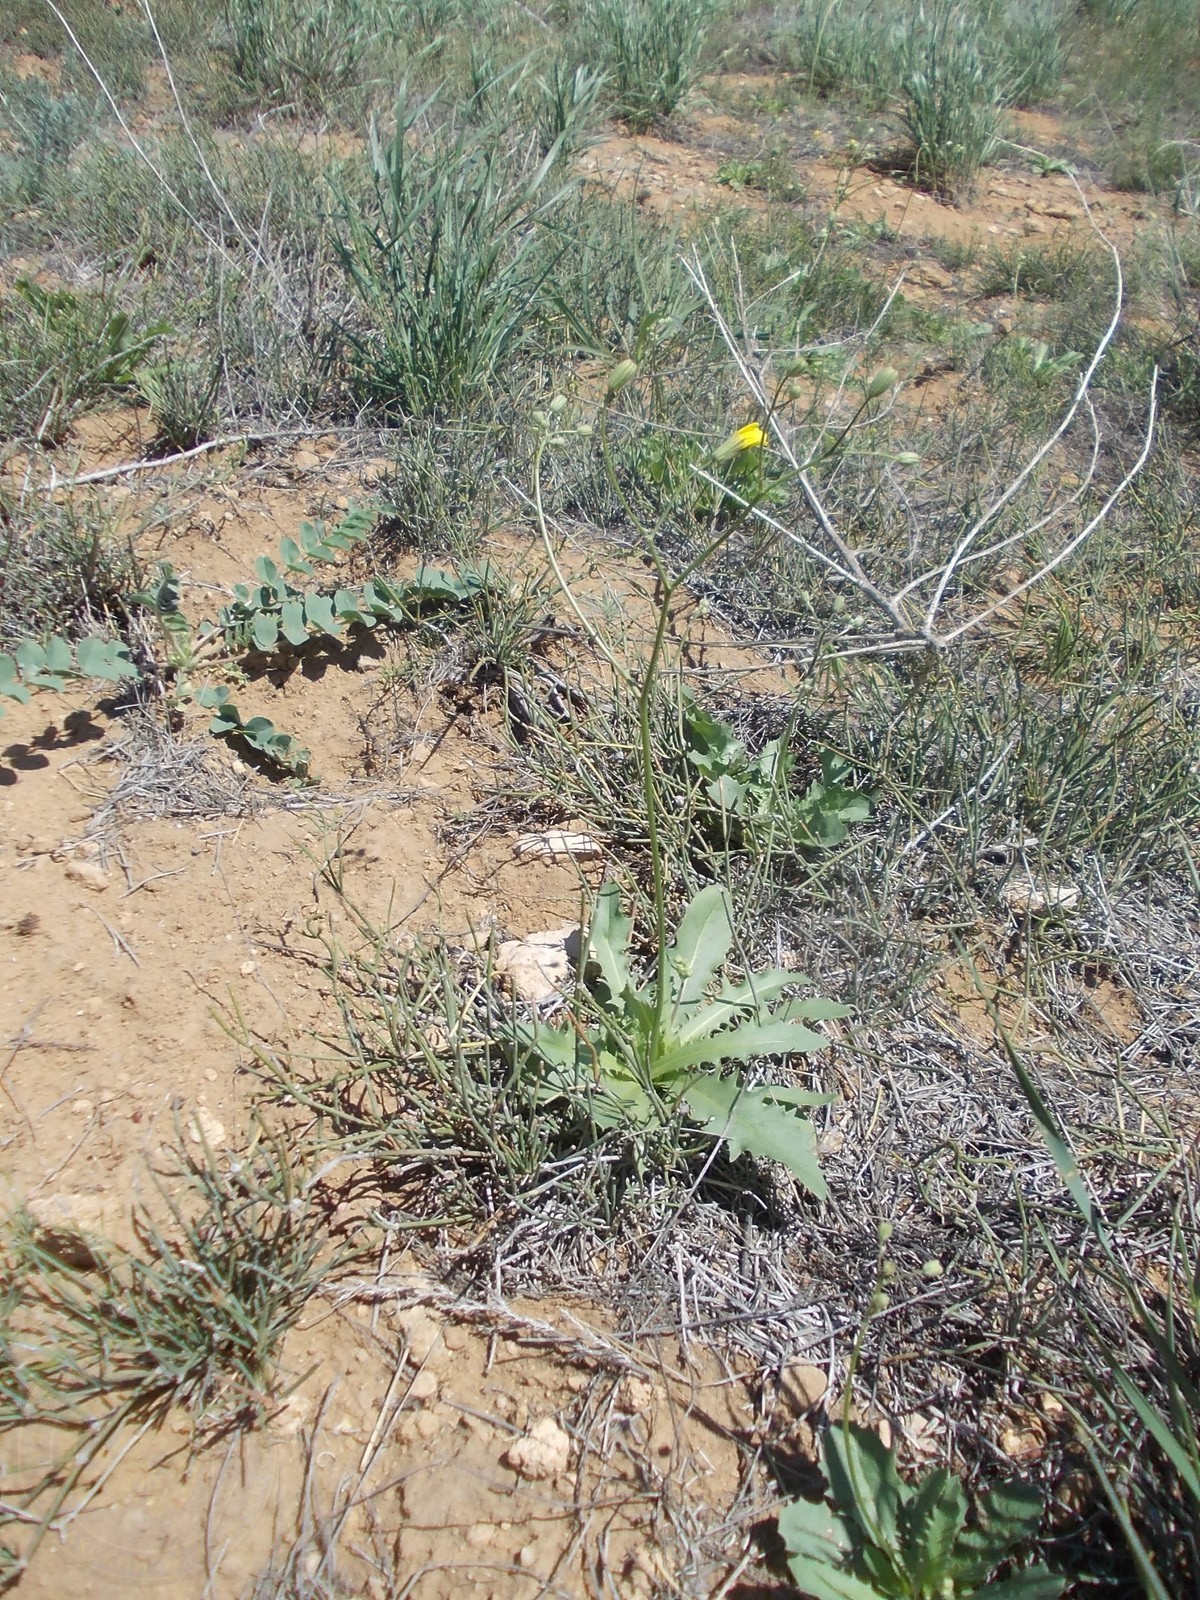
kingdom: Plantae
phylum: Tracheophyta
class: Magnoliopsida
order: Asterales
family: Asteraceae
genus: Crepis
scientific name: Crepis sancta
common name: Hawk's-beard
